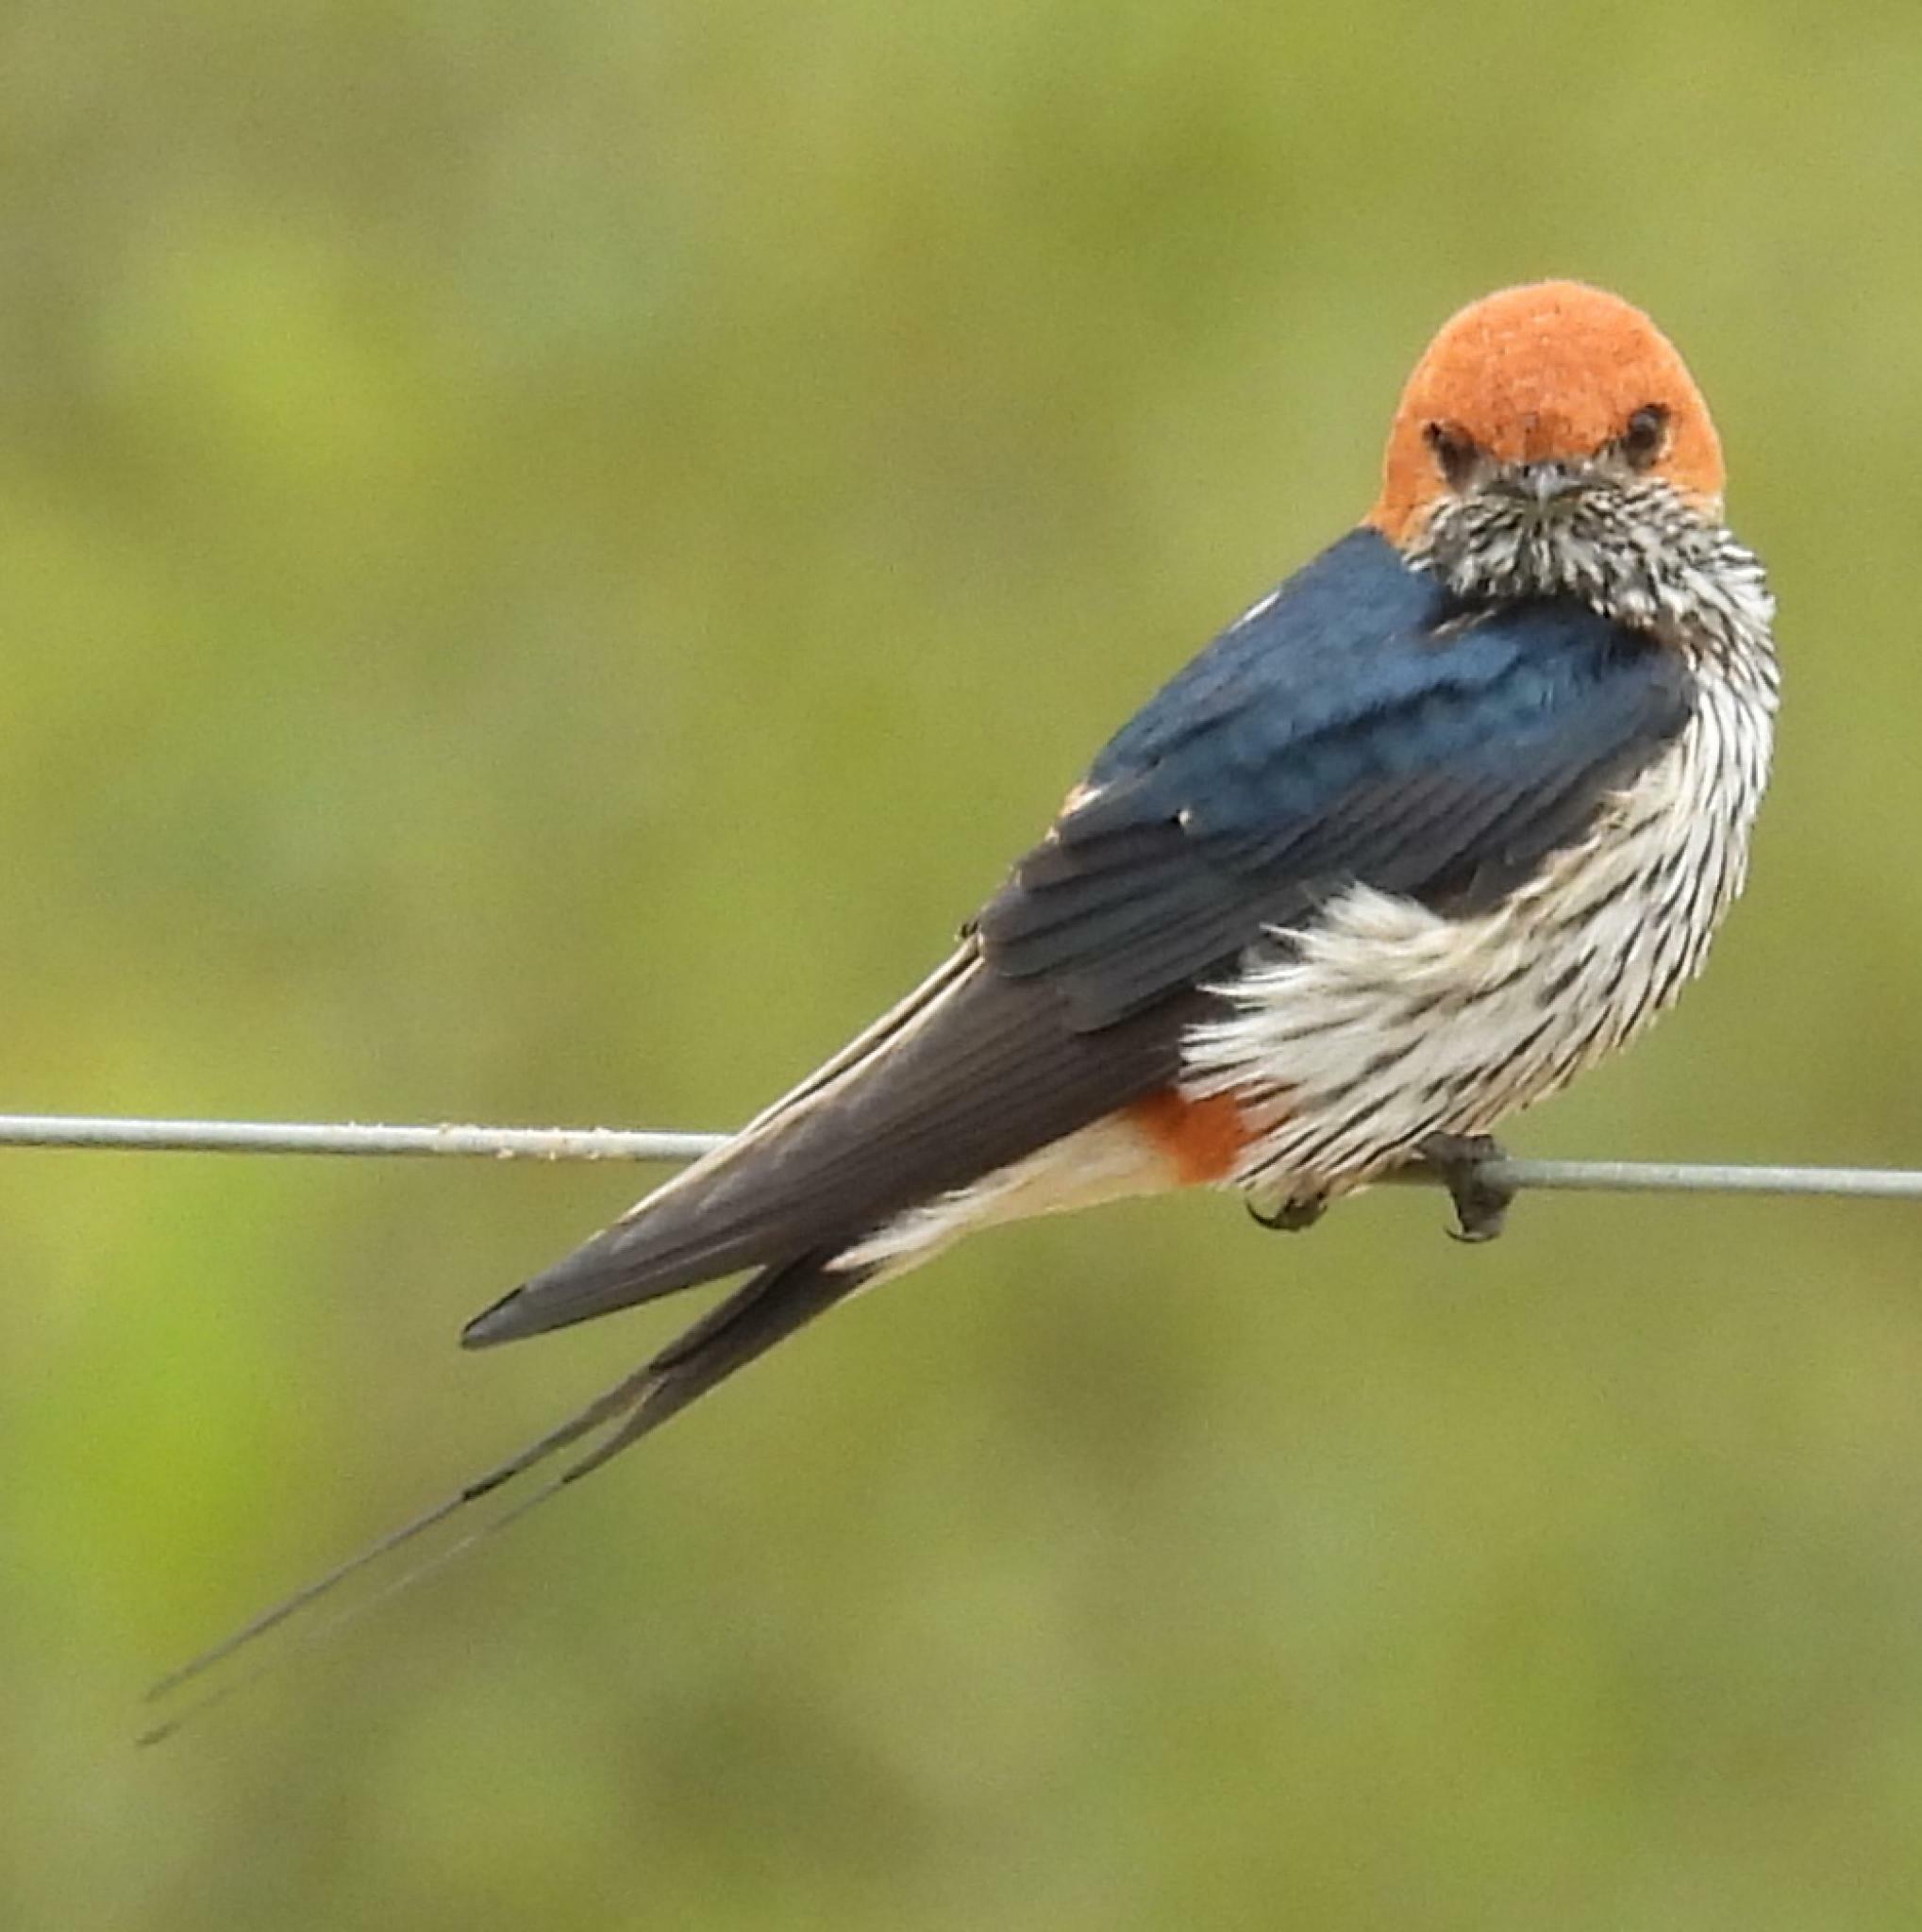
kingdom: Animalia
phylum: Chordata
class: Aves
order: Passeriformes
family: Hirundinidae
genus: Cecropis
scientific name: Cecropis abyssinica
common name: Lesser striped-swallow
